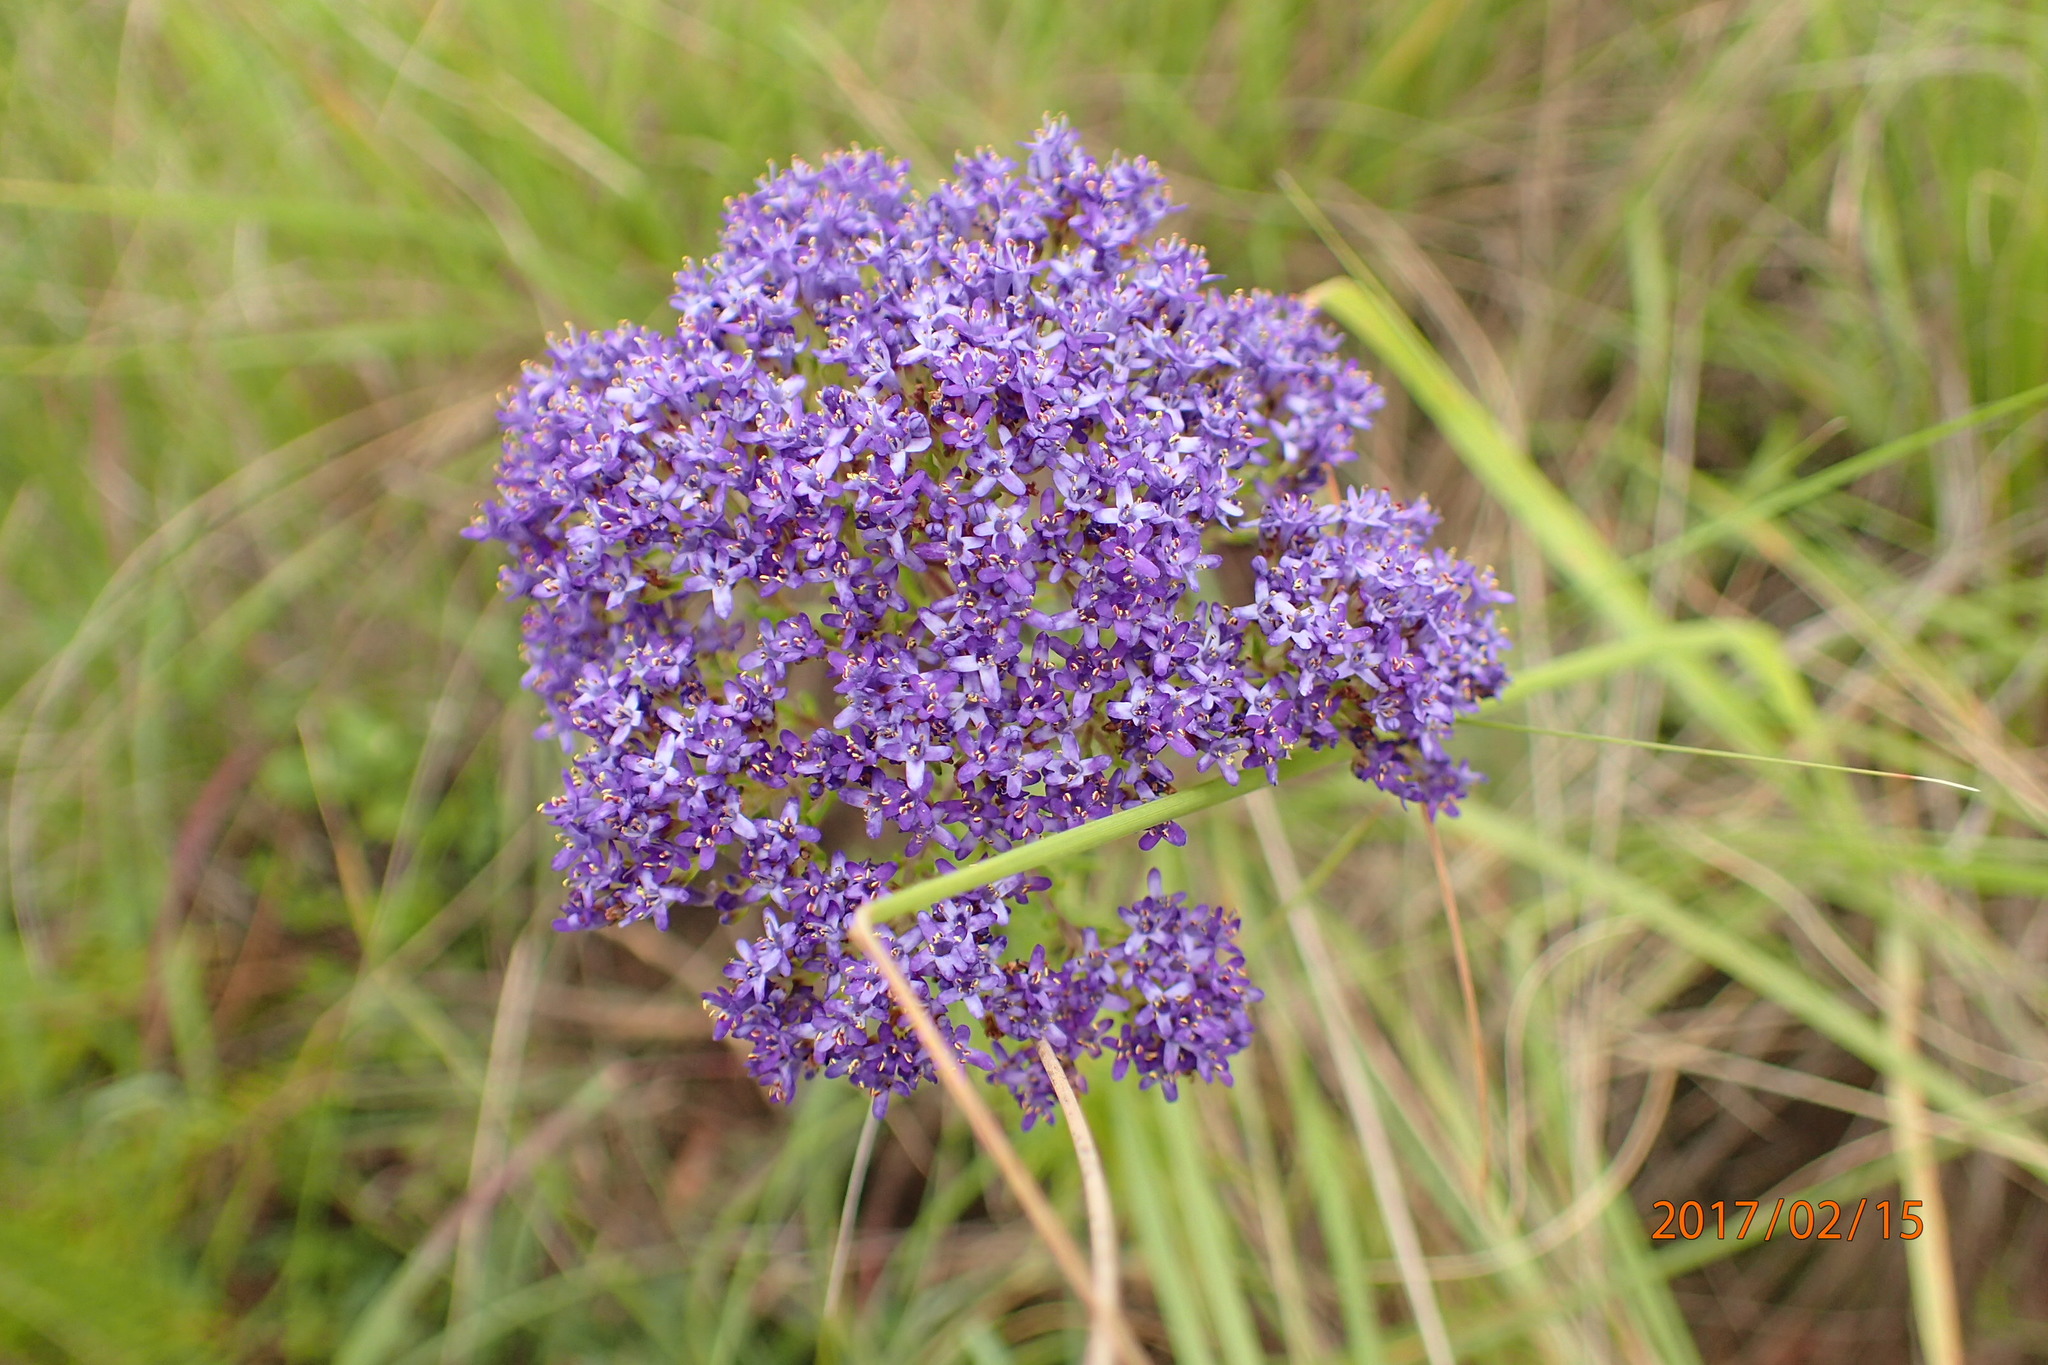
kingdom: Plantae
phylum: Tracheophyta
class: Magnoliopsida
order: Lamiales
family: Scrophulariaceae
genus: Tetraselago
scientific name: Tetraselago natalensis
